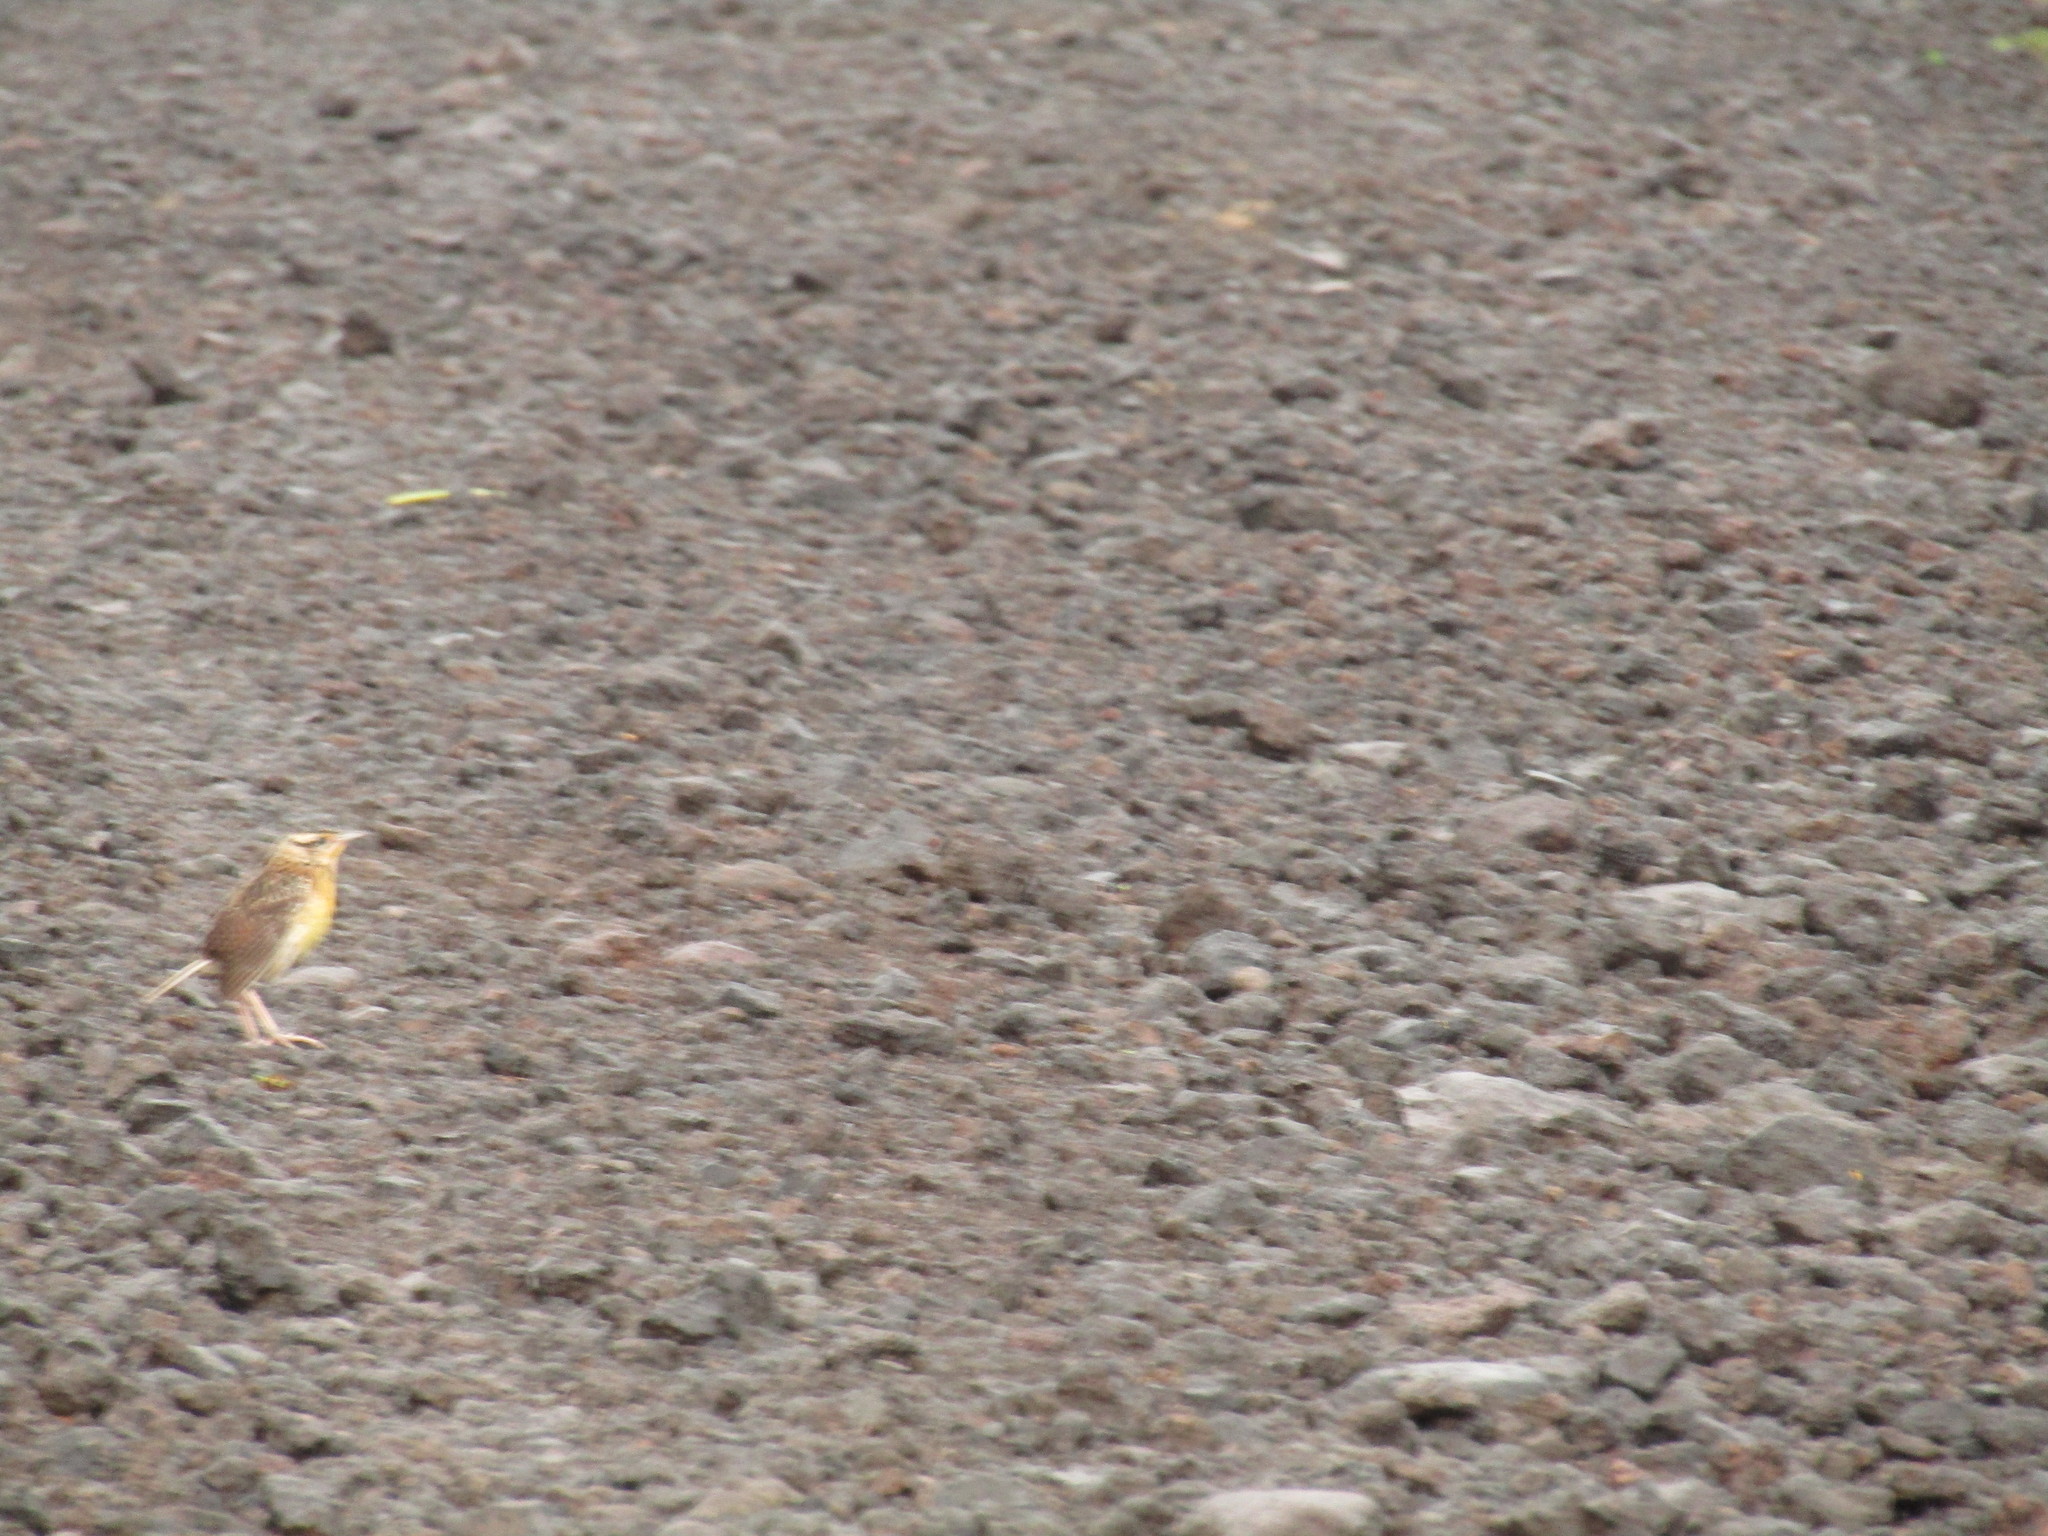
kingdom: Animalia
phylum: Chordata
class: Aves
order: Passeriformes
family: Icteridae
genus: Sturnella
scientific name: Sturnella magna
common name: Eastern meadowlark
